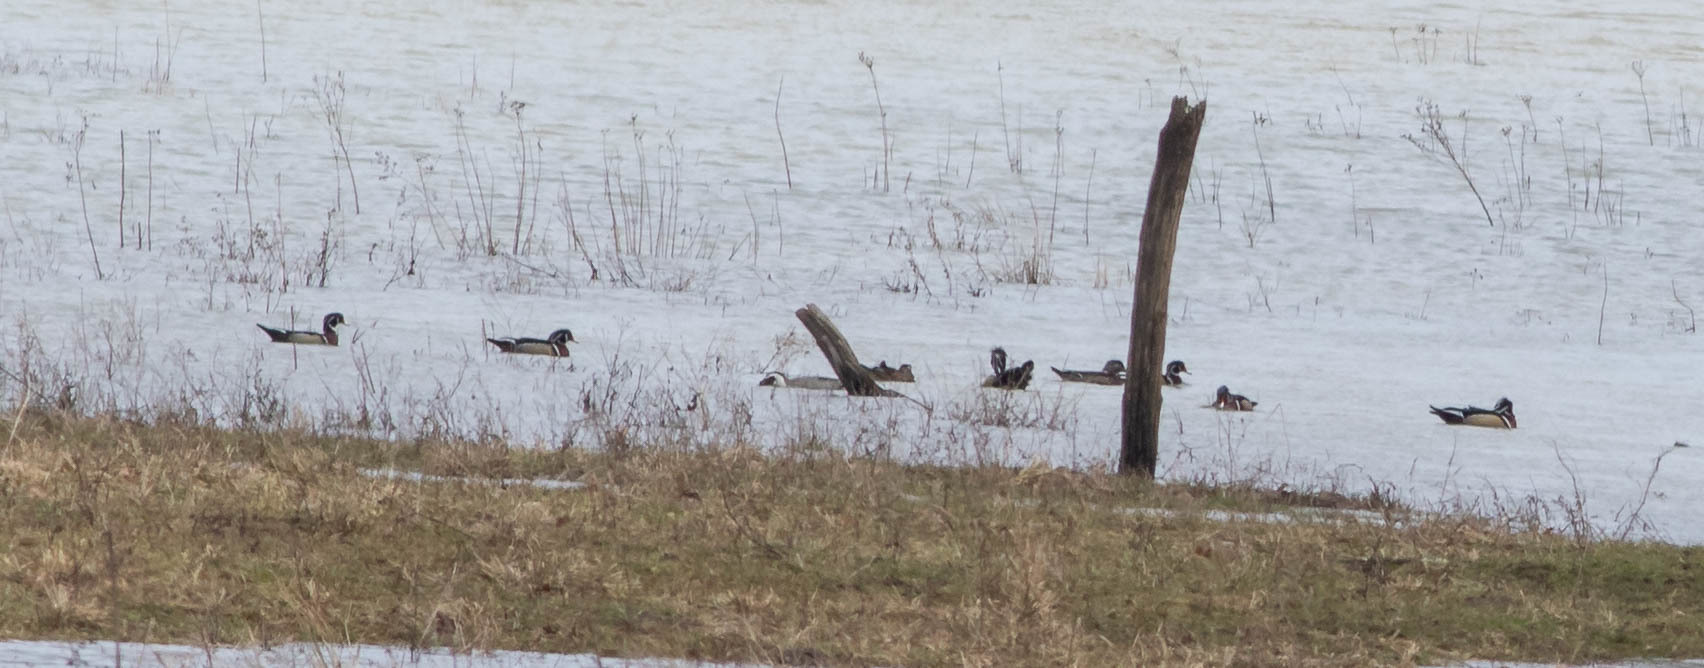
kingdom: Animalia
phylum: Chordata
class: Aves
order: Anseriformes
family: Anatidae
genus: Aix
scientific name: Aix sponsa
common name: Wood duck
